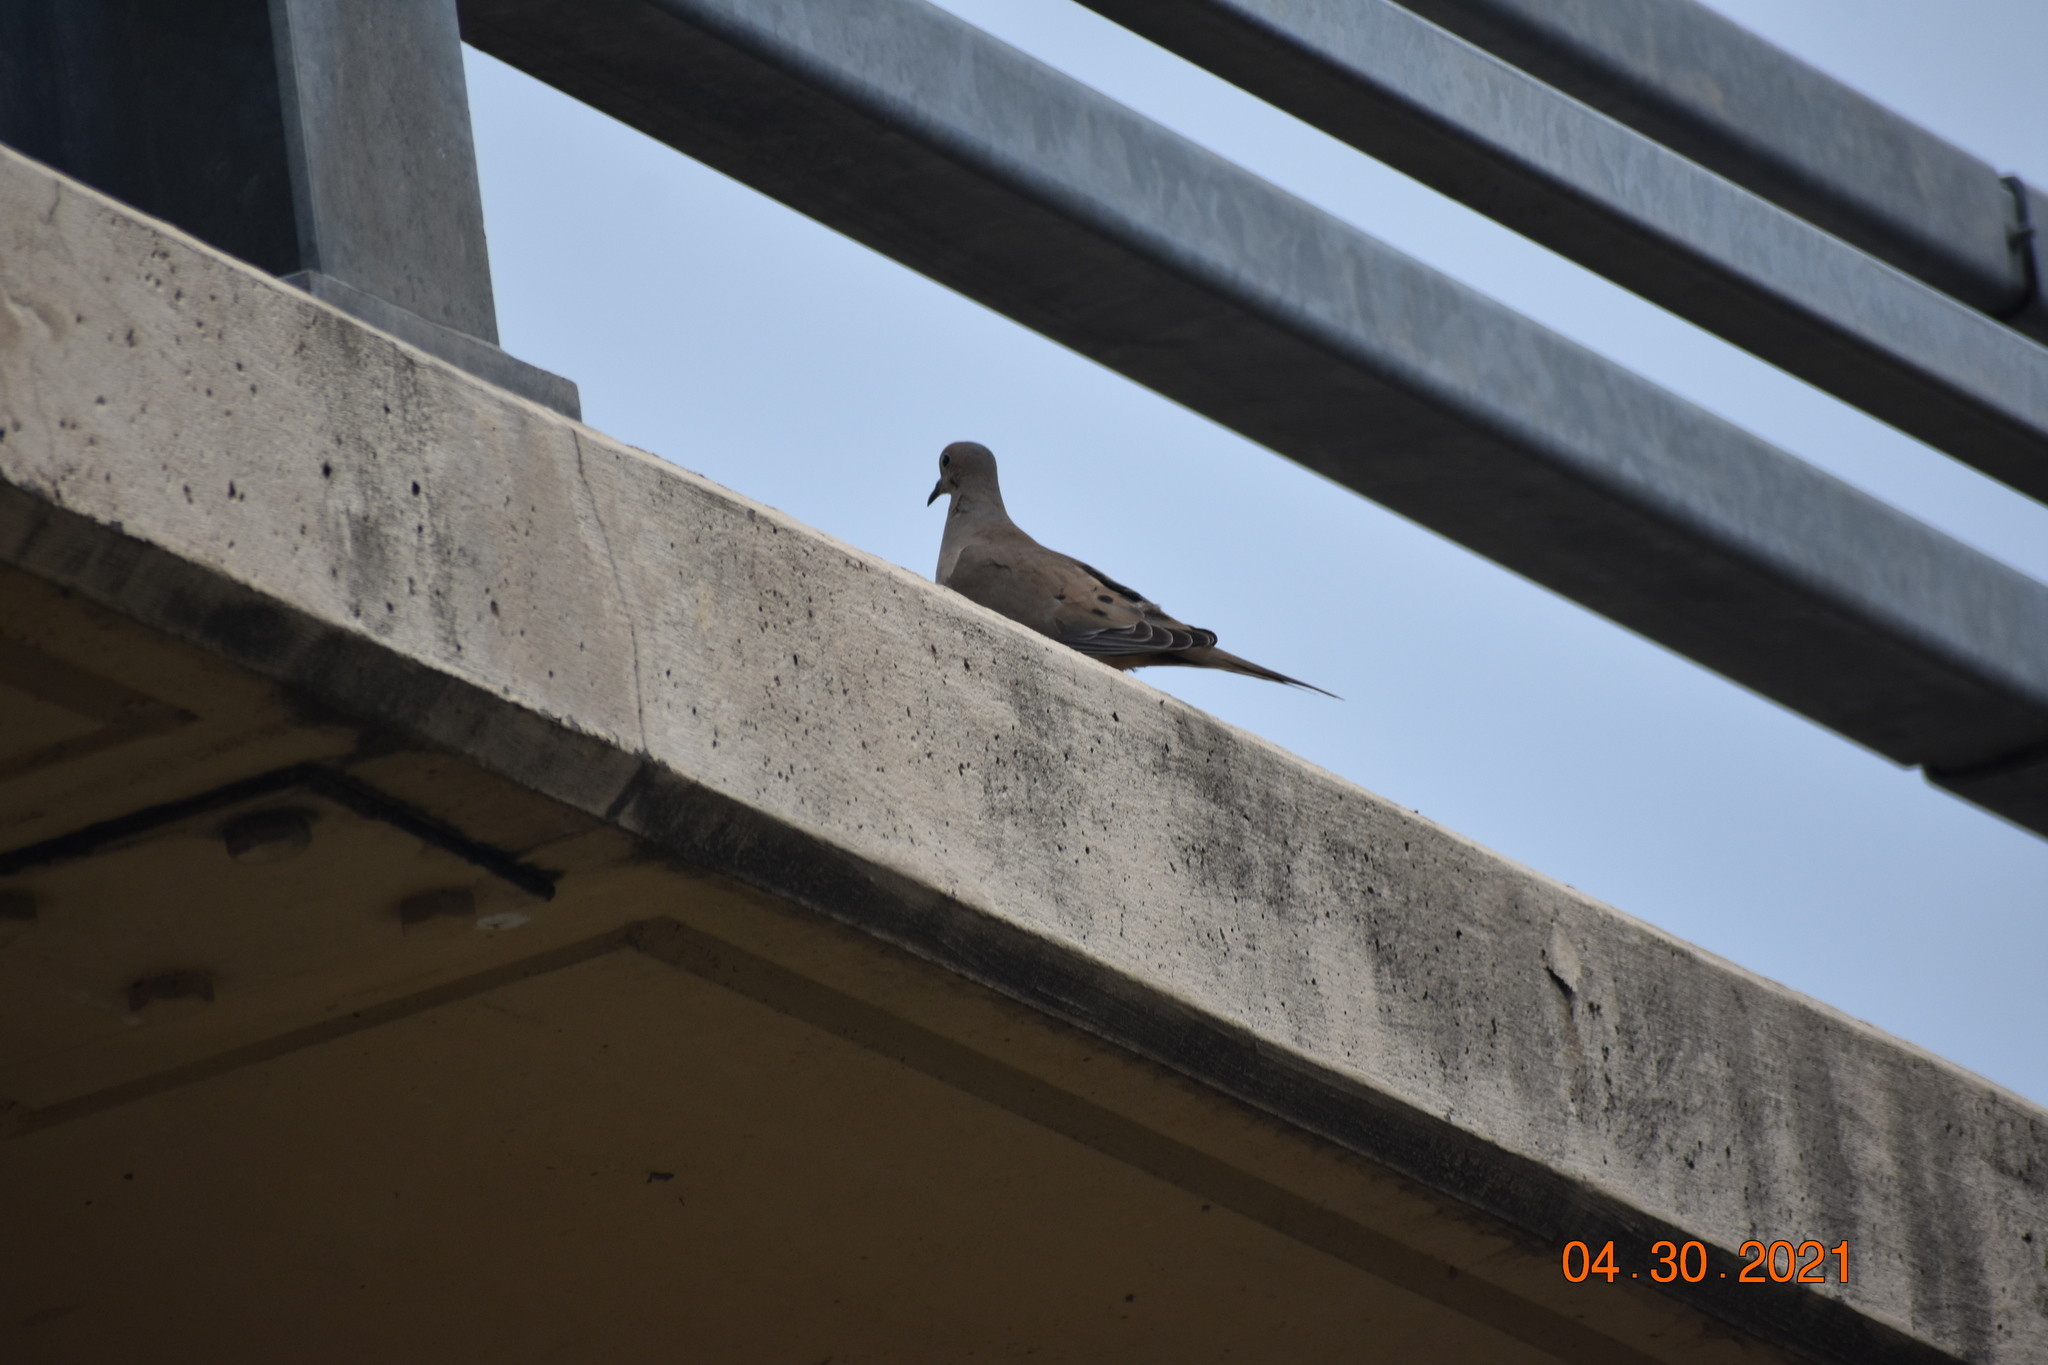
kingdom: Animalia
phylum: Chordata
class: Aves
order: Columbiformes
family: Columbidae
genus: Zenaida
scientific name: Zenaida macroura
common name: Mourning dove
